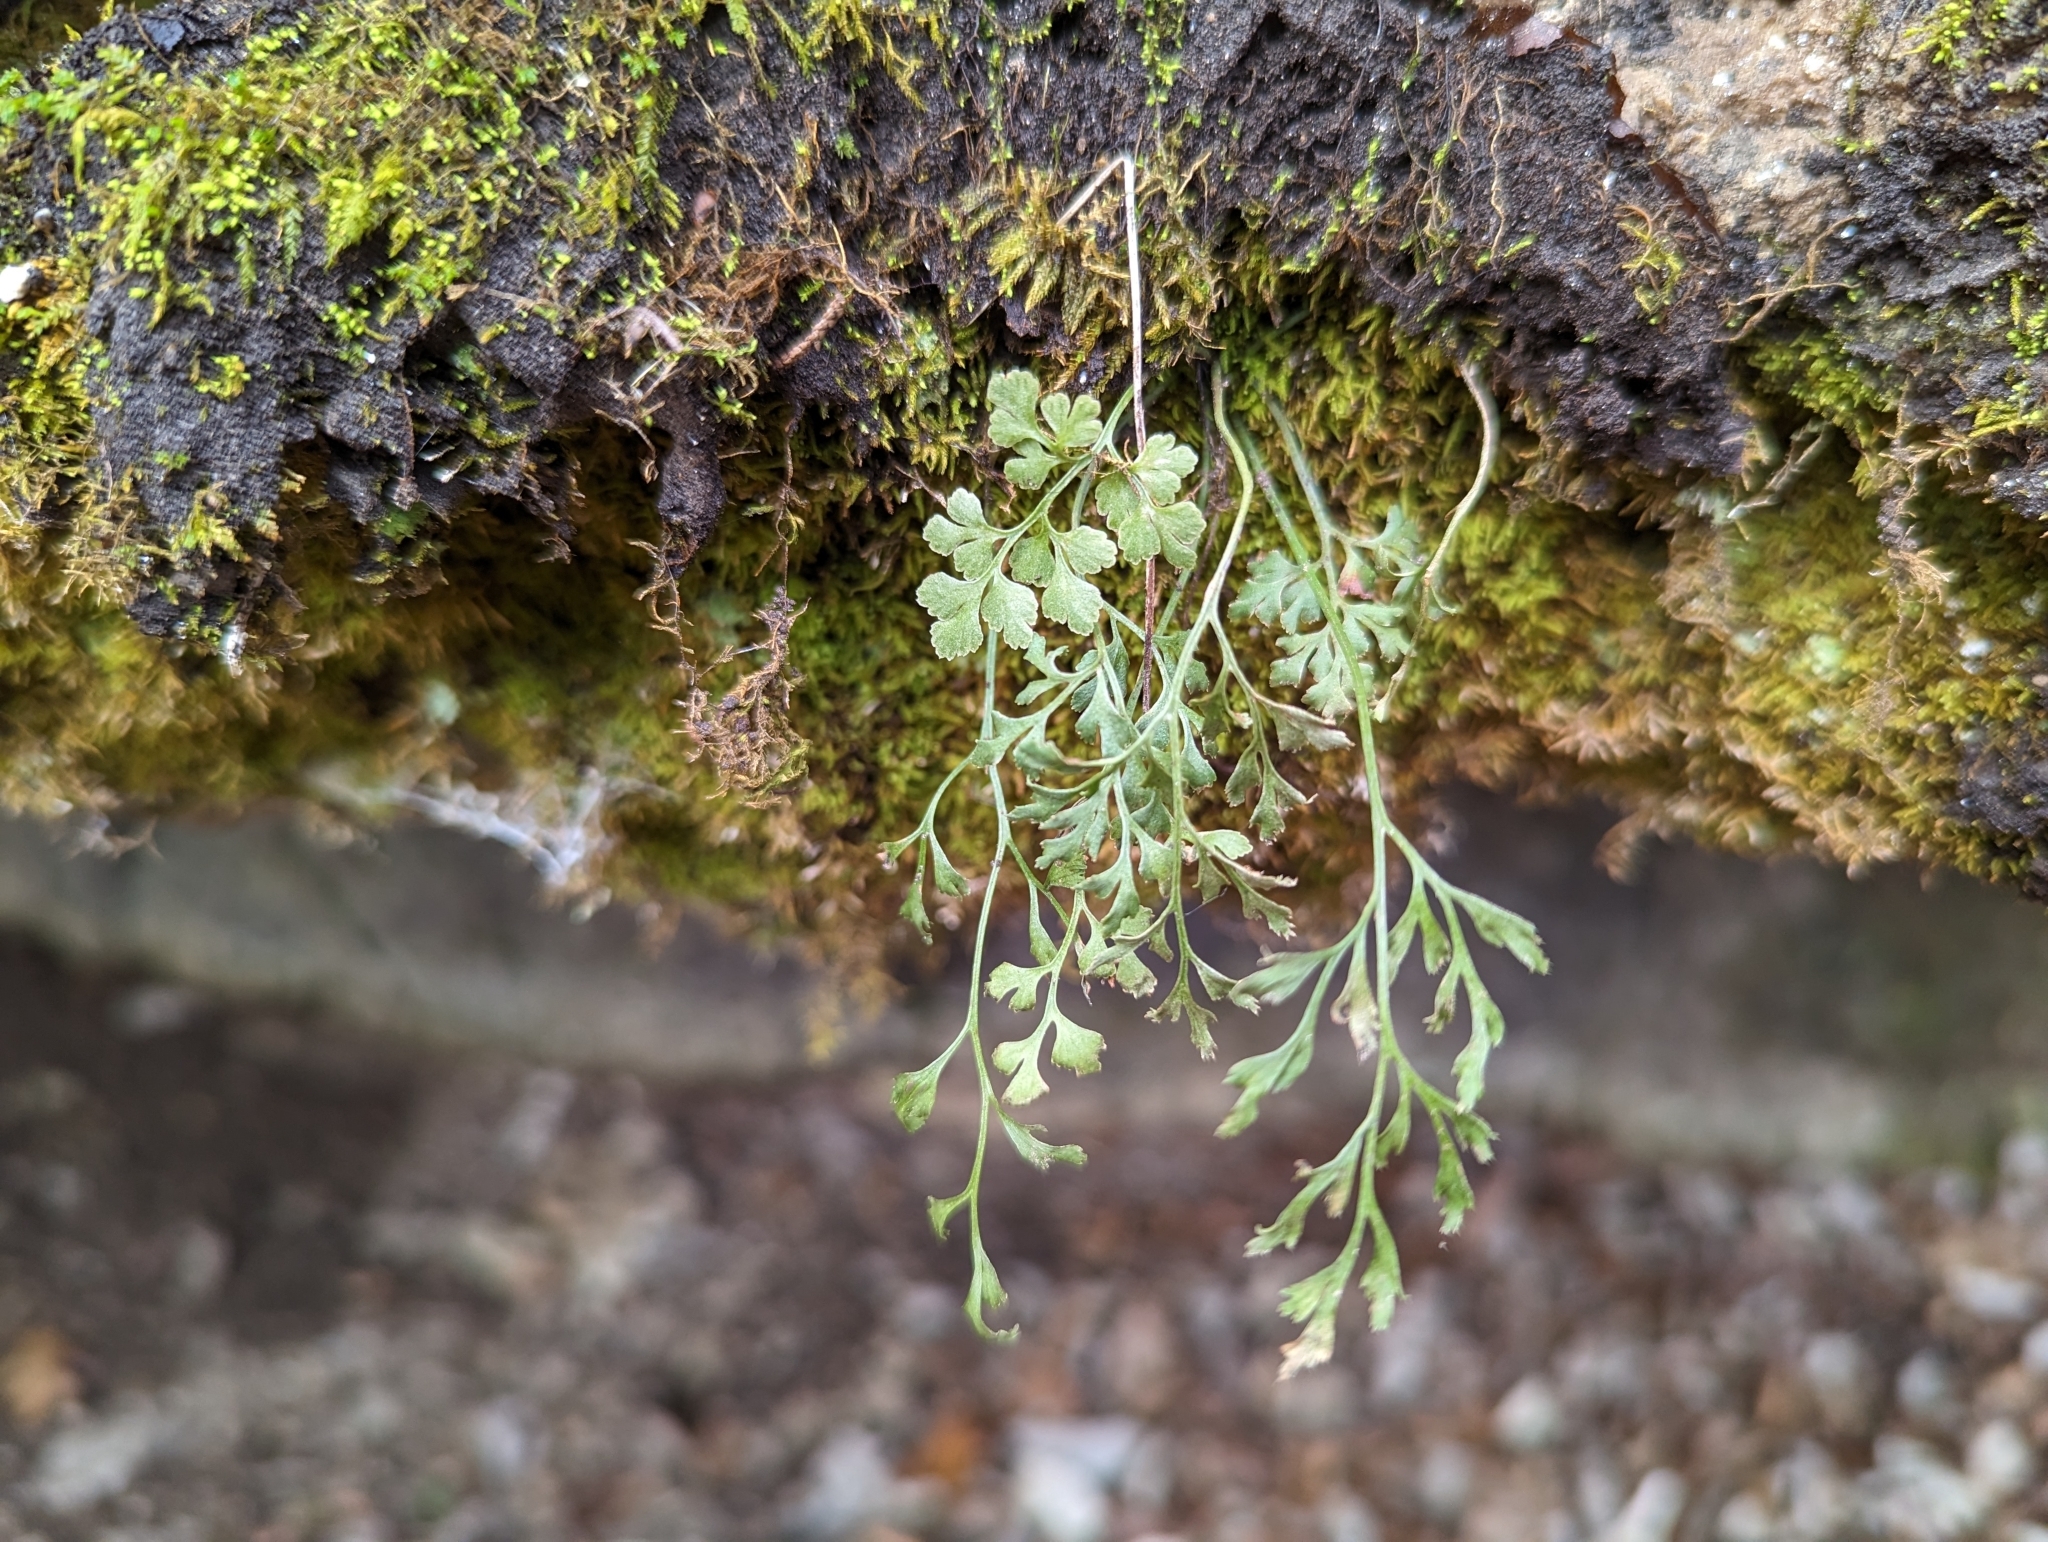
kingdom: Plantae
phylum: Tracheophyta
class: Polypodiopsida
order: Polypodiales
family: Aspleniaceae
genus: Asplenium
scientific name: Asplenium ruta-muraria
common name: Wall-rue
